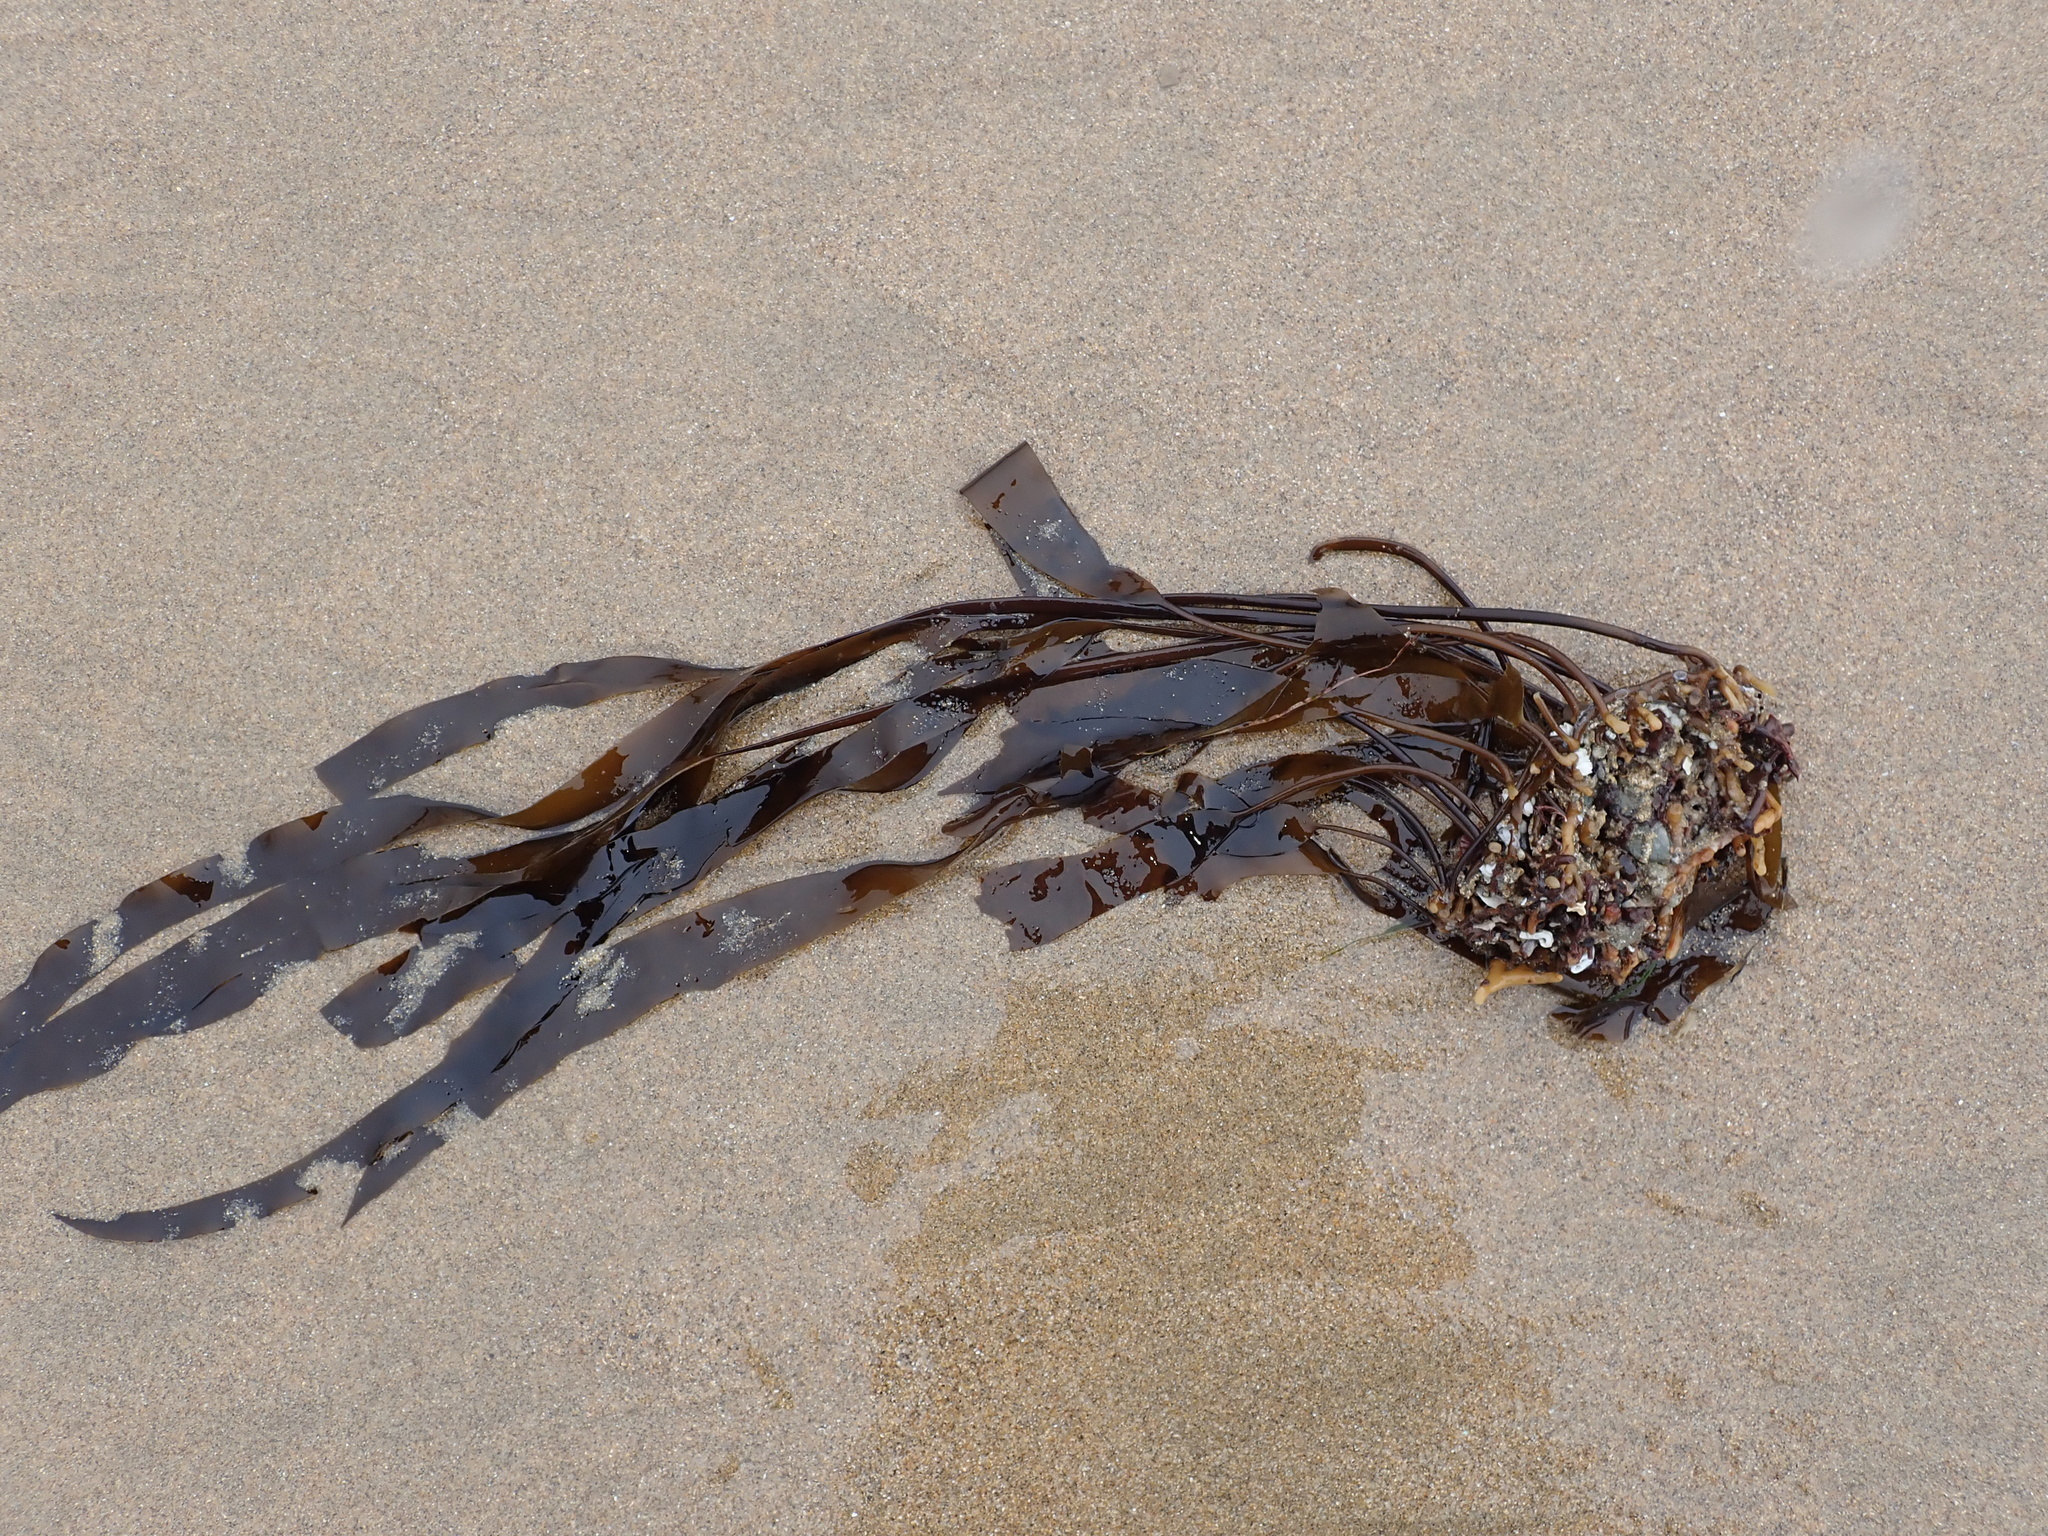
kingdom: Chromista
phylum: Ochrophyta
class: Phaeophyceae
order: Laminariales
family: Laminariaceae
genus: Laminaria
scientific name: Laminaria sinclairii
